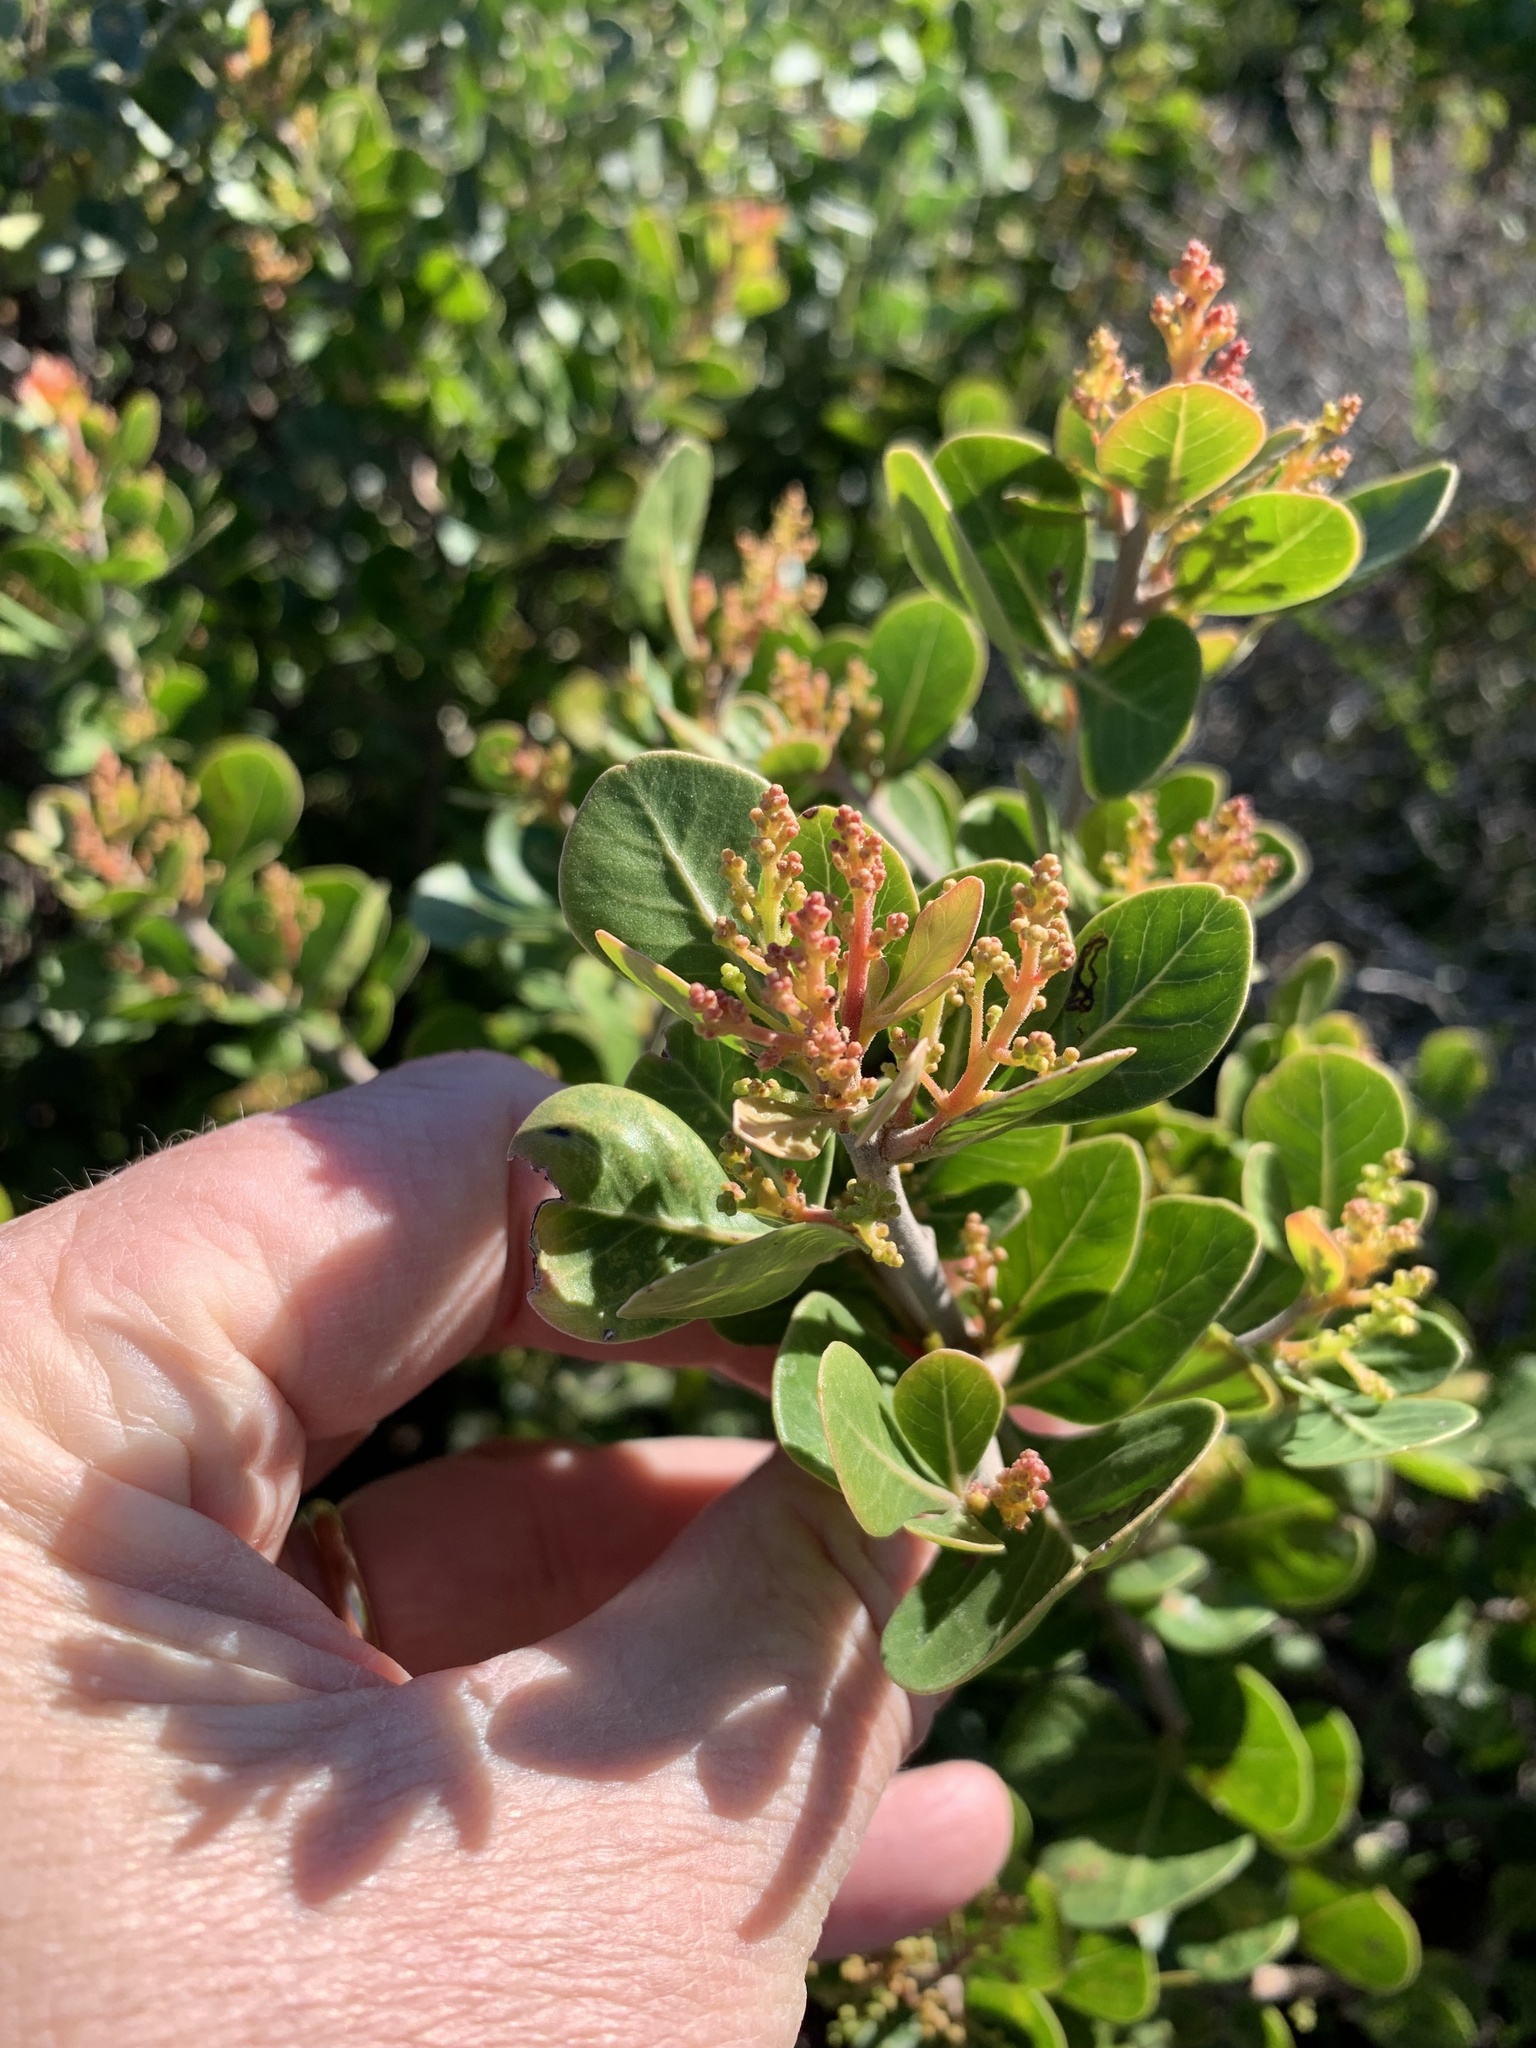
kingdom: Plantae
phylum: Tracheophyta
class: Magnoliopsida
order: Sapindales
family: Anacardiaceae
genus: Searsia
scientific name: Searsia lucida
